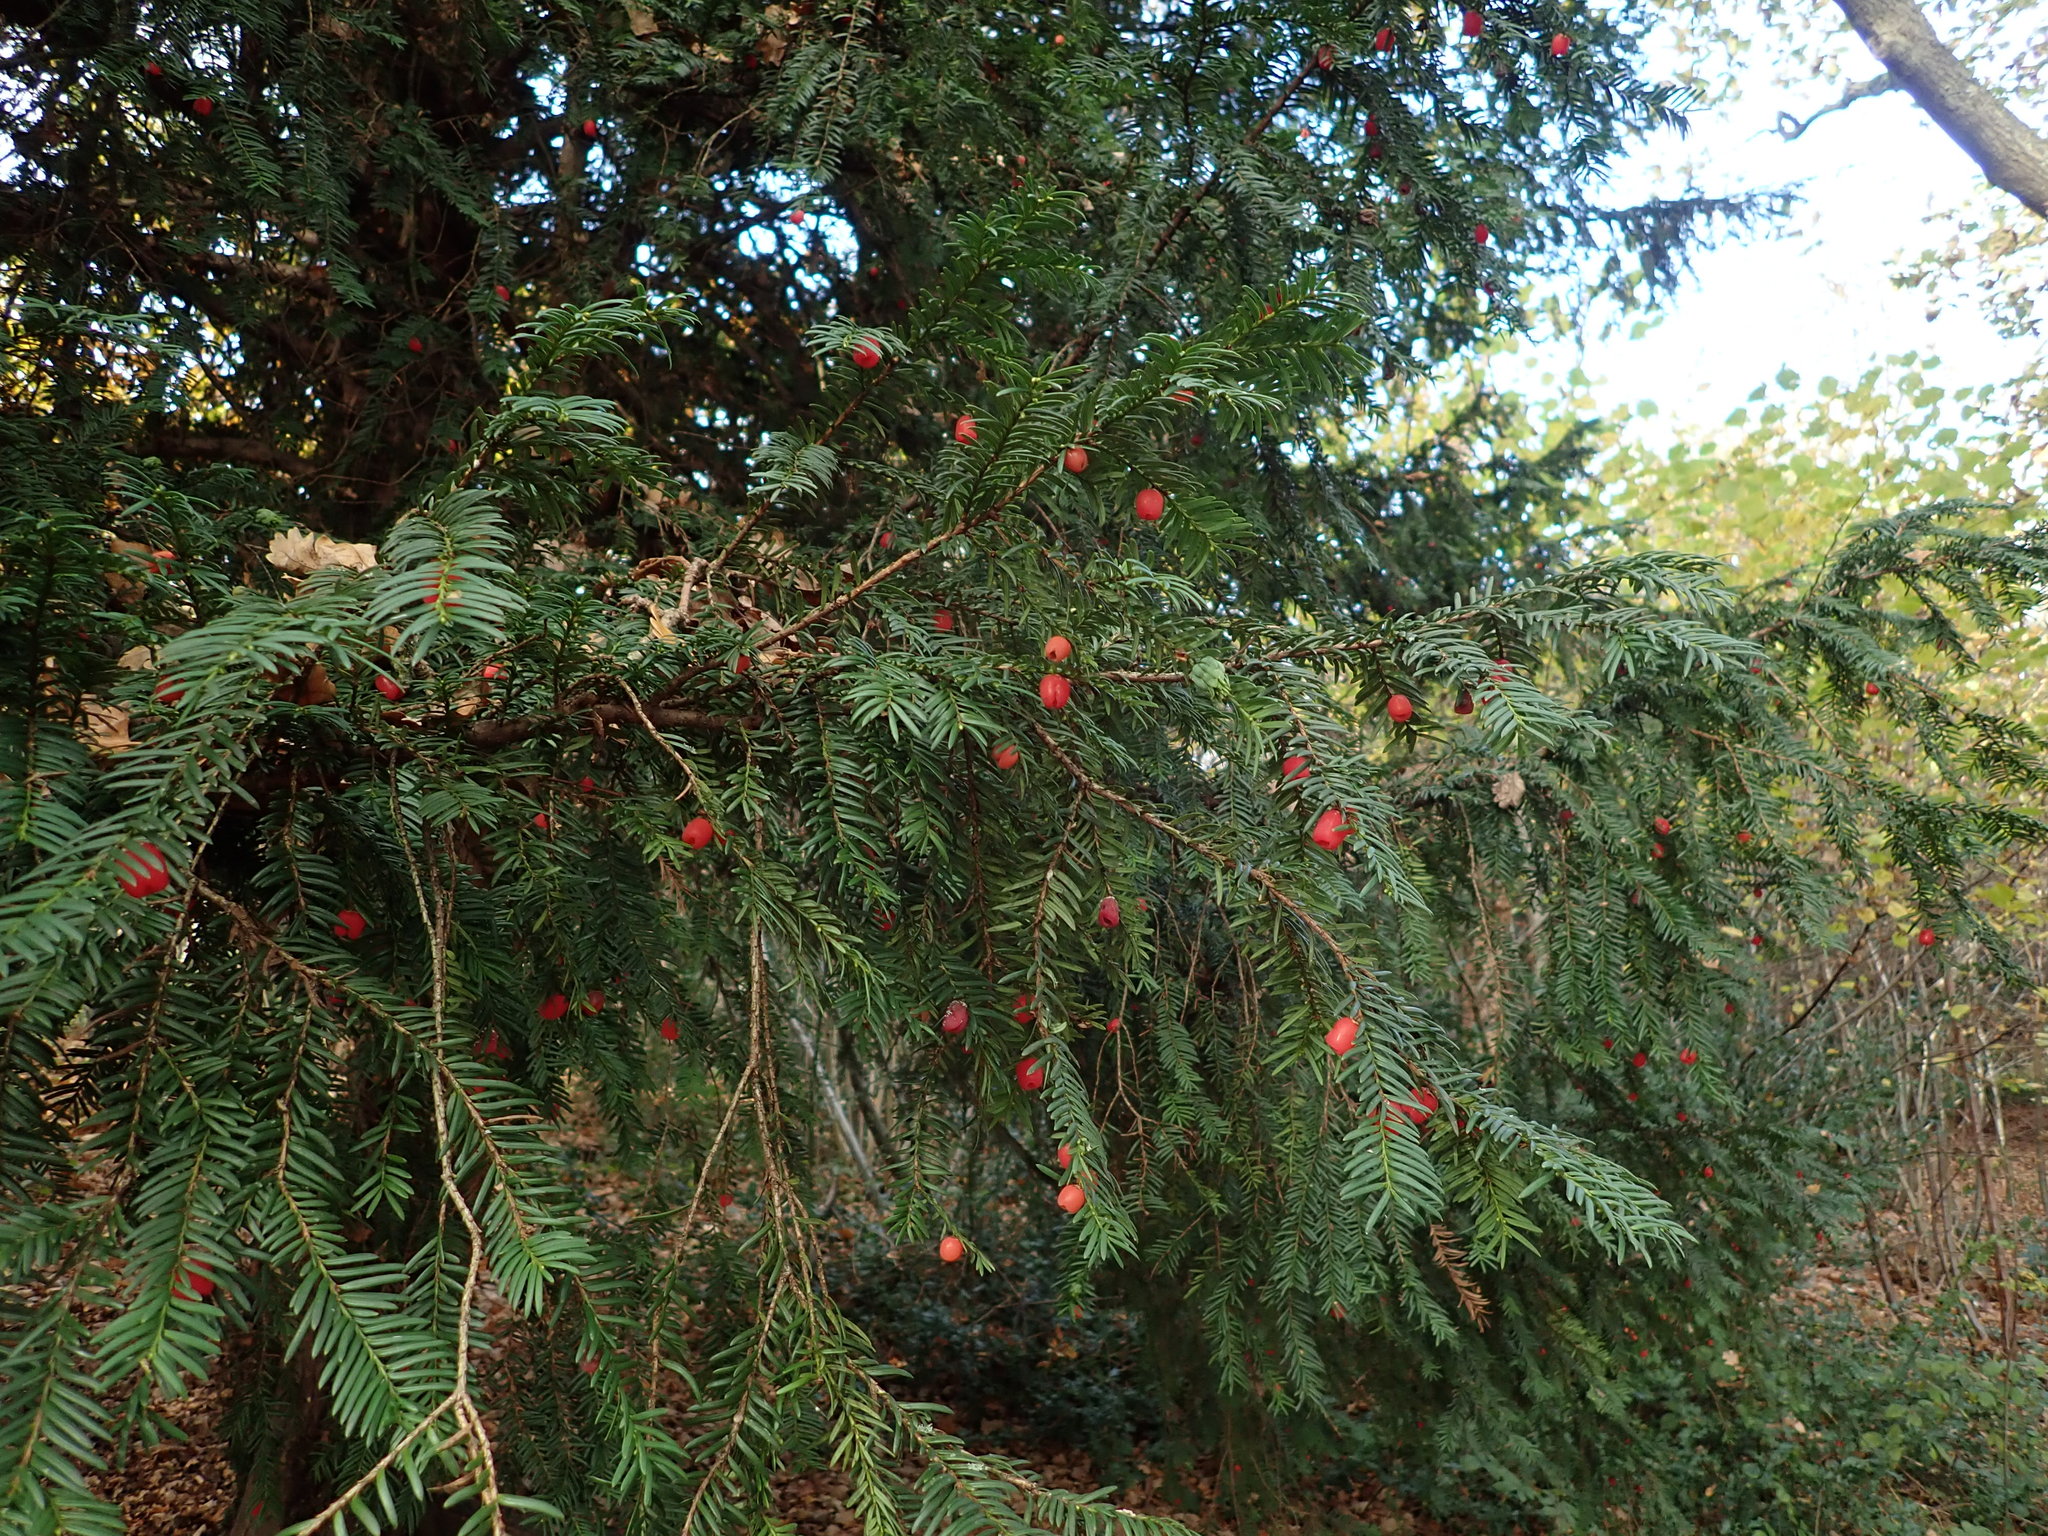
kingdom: Plantae
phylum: Tracheophyta
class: Pinopsida
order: Pinales
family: Taxaceae
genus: Taxus
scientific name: Taxus baccata
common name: Yew
